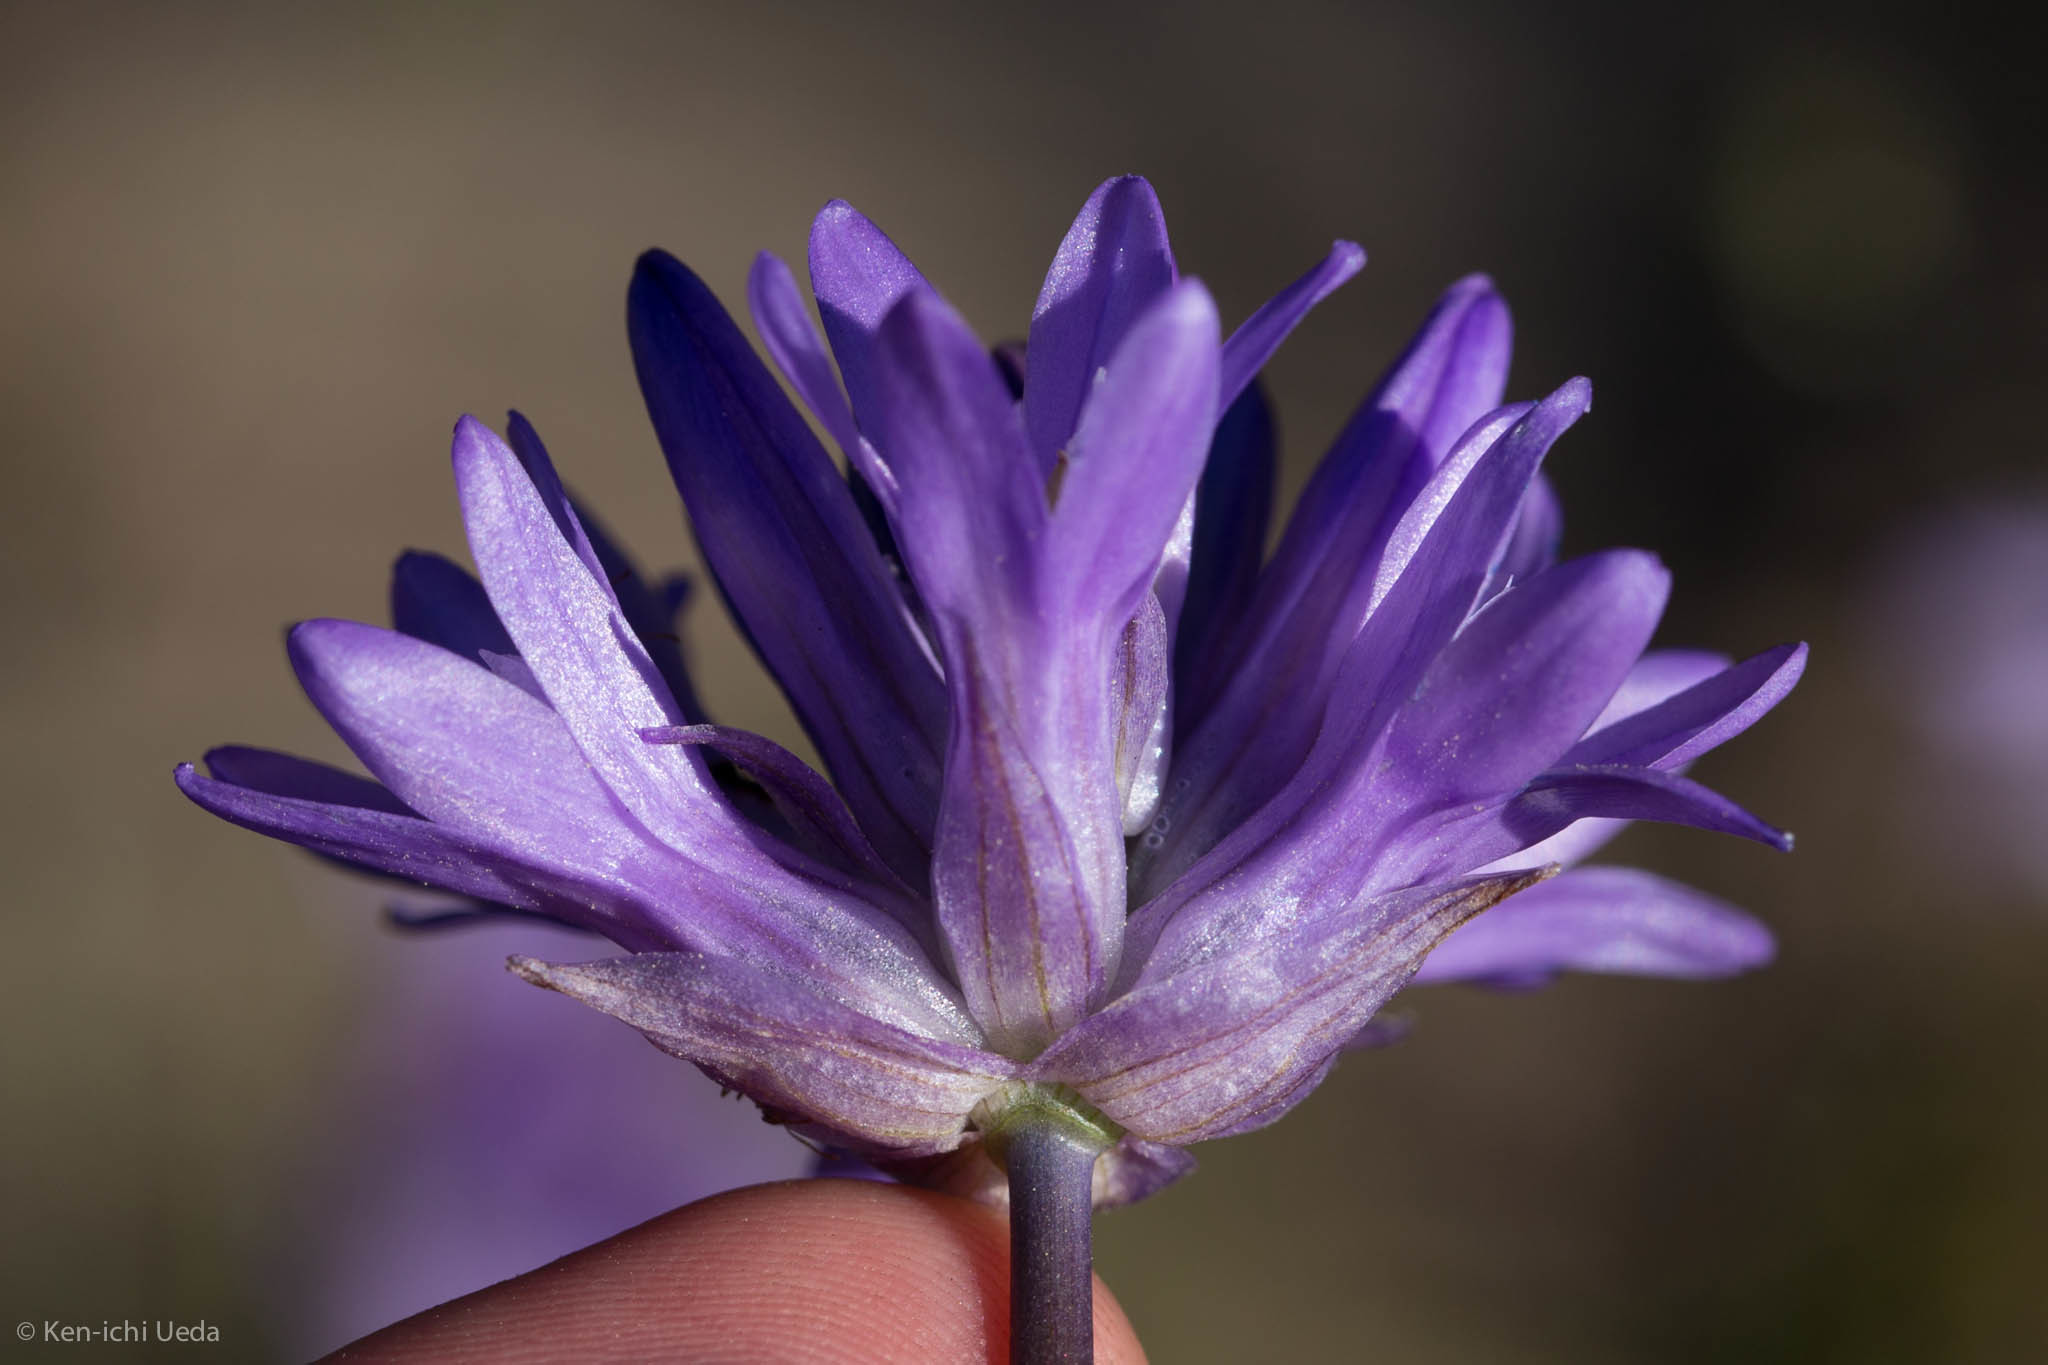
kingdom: Plantae
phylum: Tracheophyta
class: Liliopsida
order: Asparagales
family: Asparagaceae
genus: Dichelostemma
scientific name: Dichelostemma congestum
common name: Fork-tooth ookow
